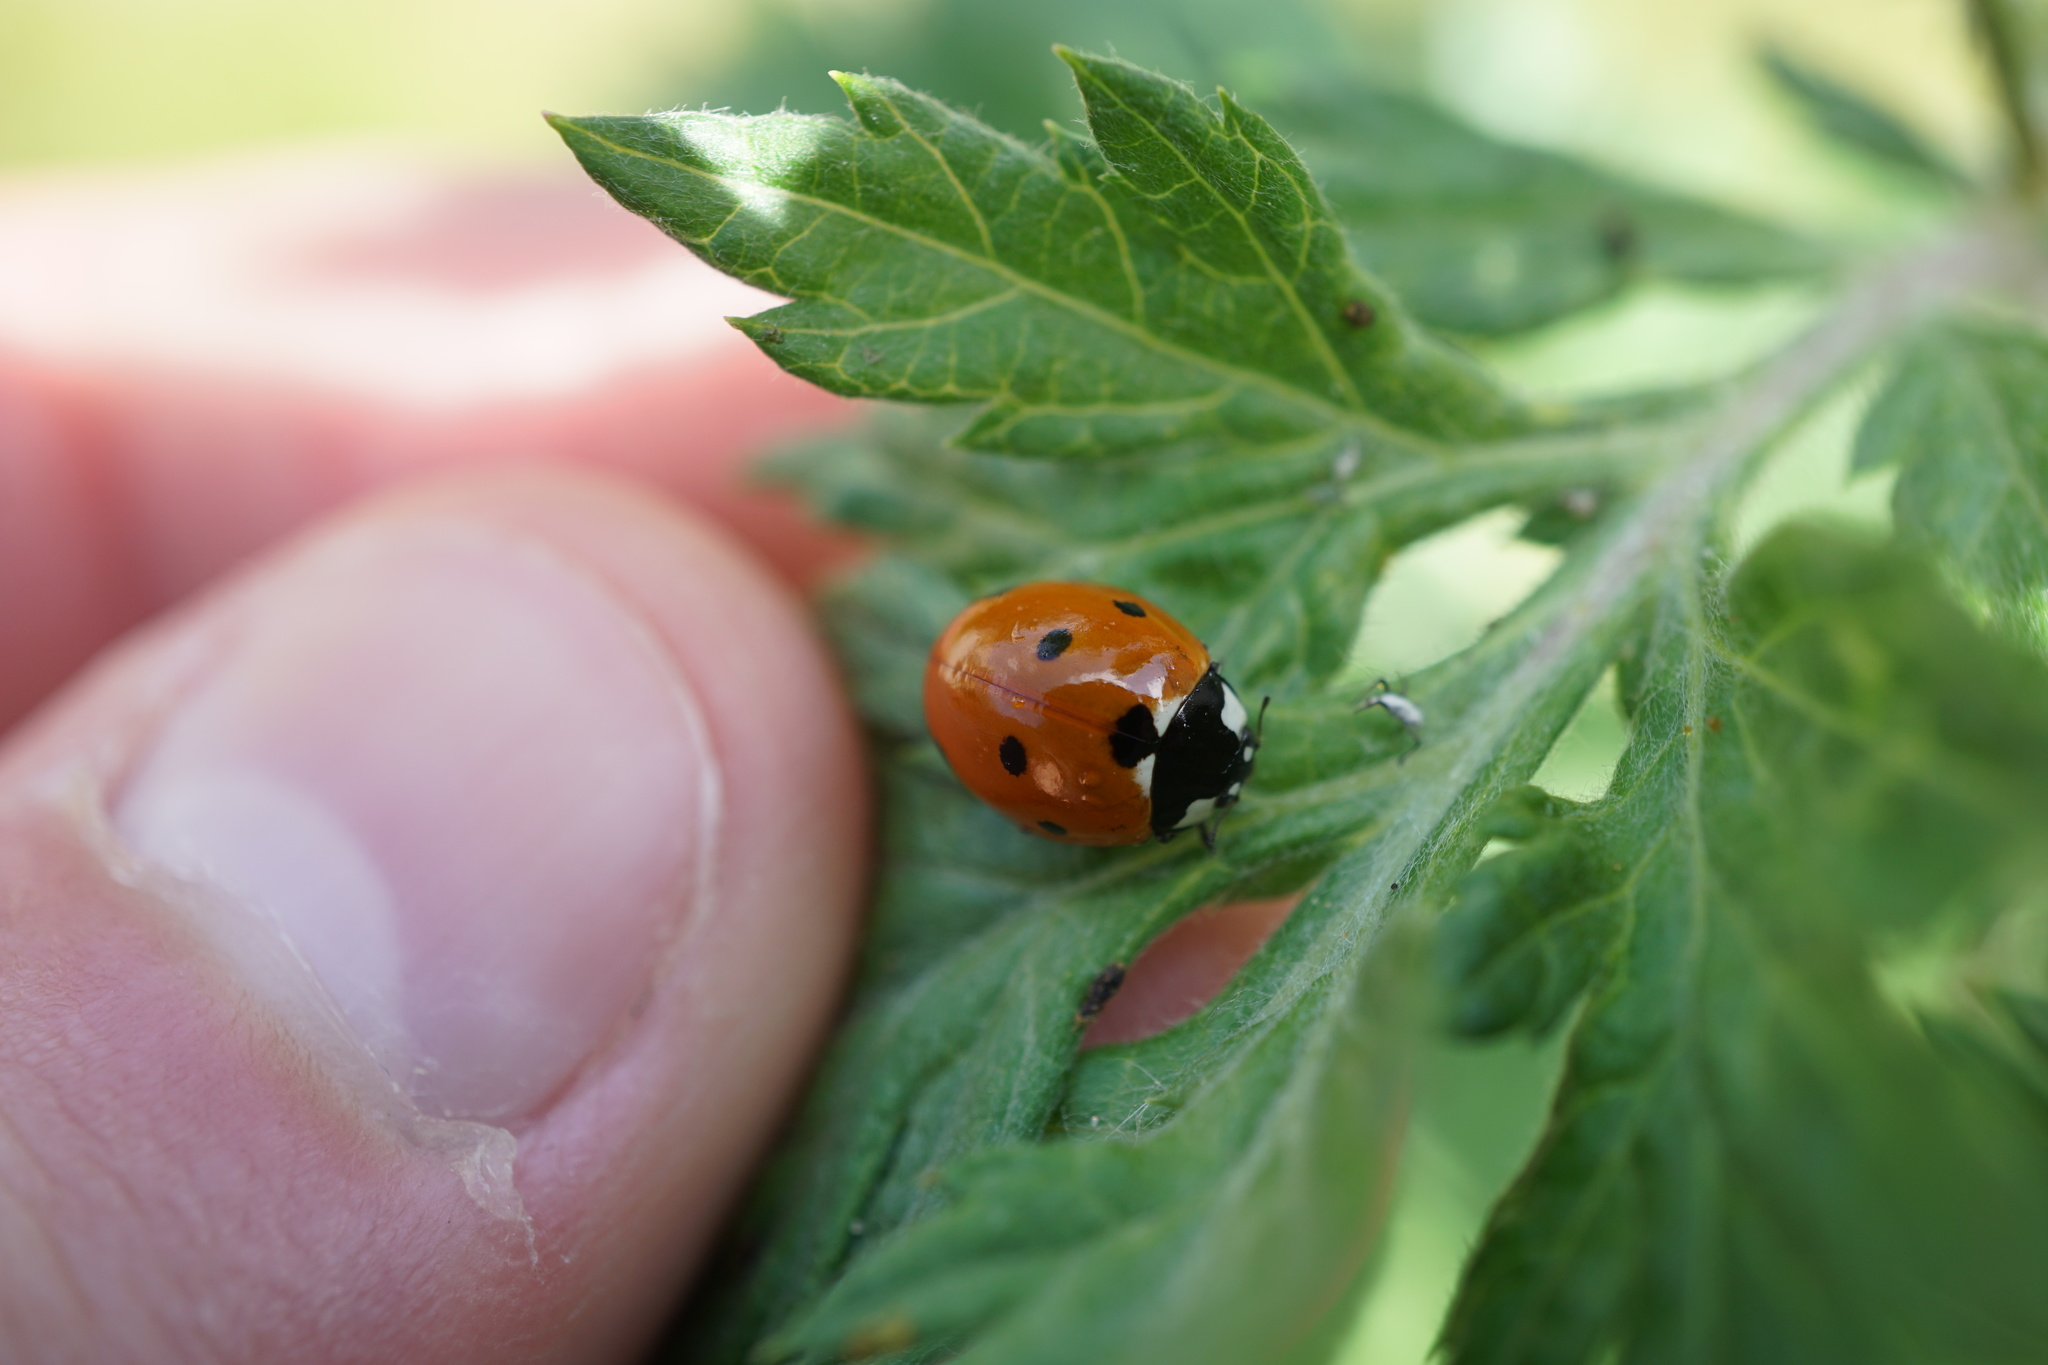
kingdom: Animalia
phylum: Arthropoda
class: Insecta
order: Coleoptera
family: Coccinellidae
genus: Coccinella
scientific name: Coccinella septempunctata
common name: Sevenspotted lady beetle
